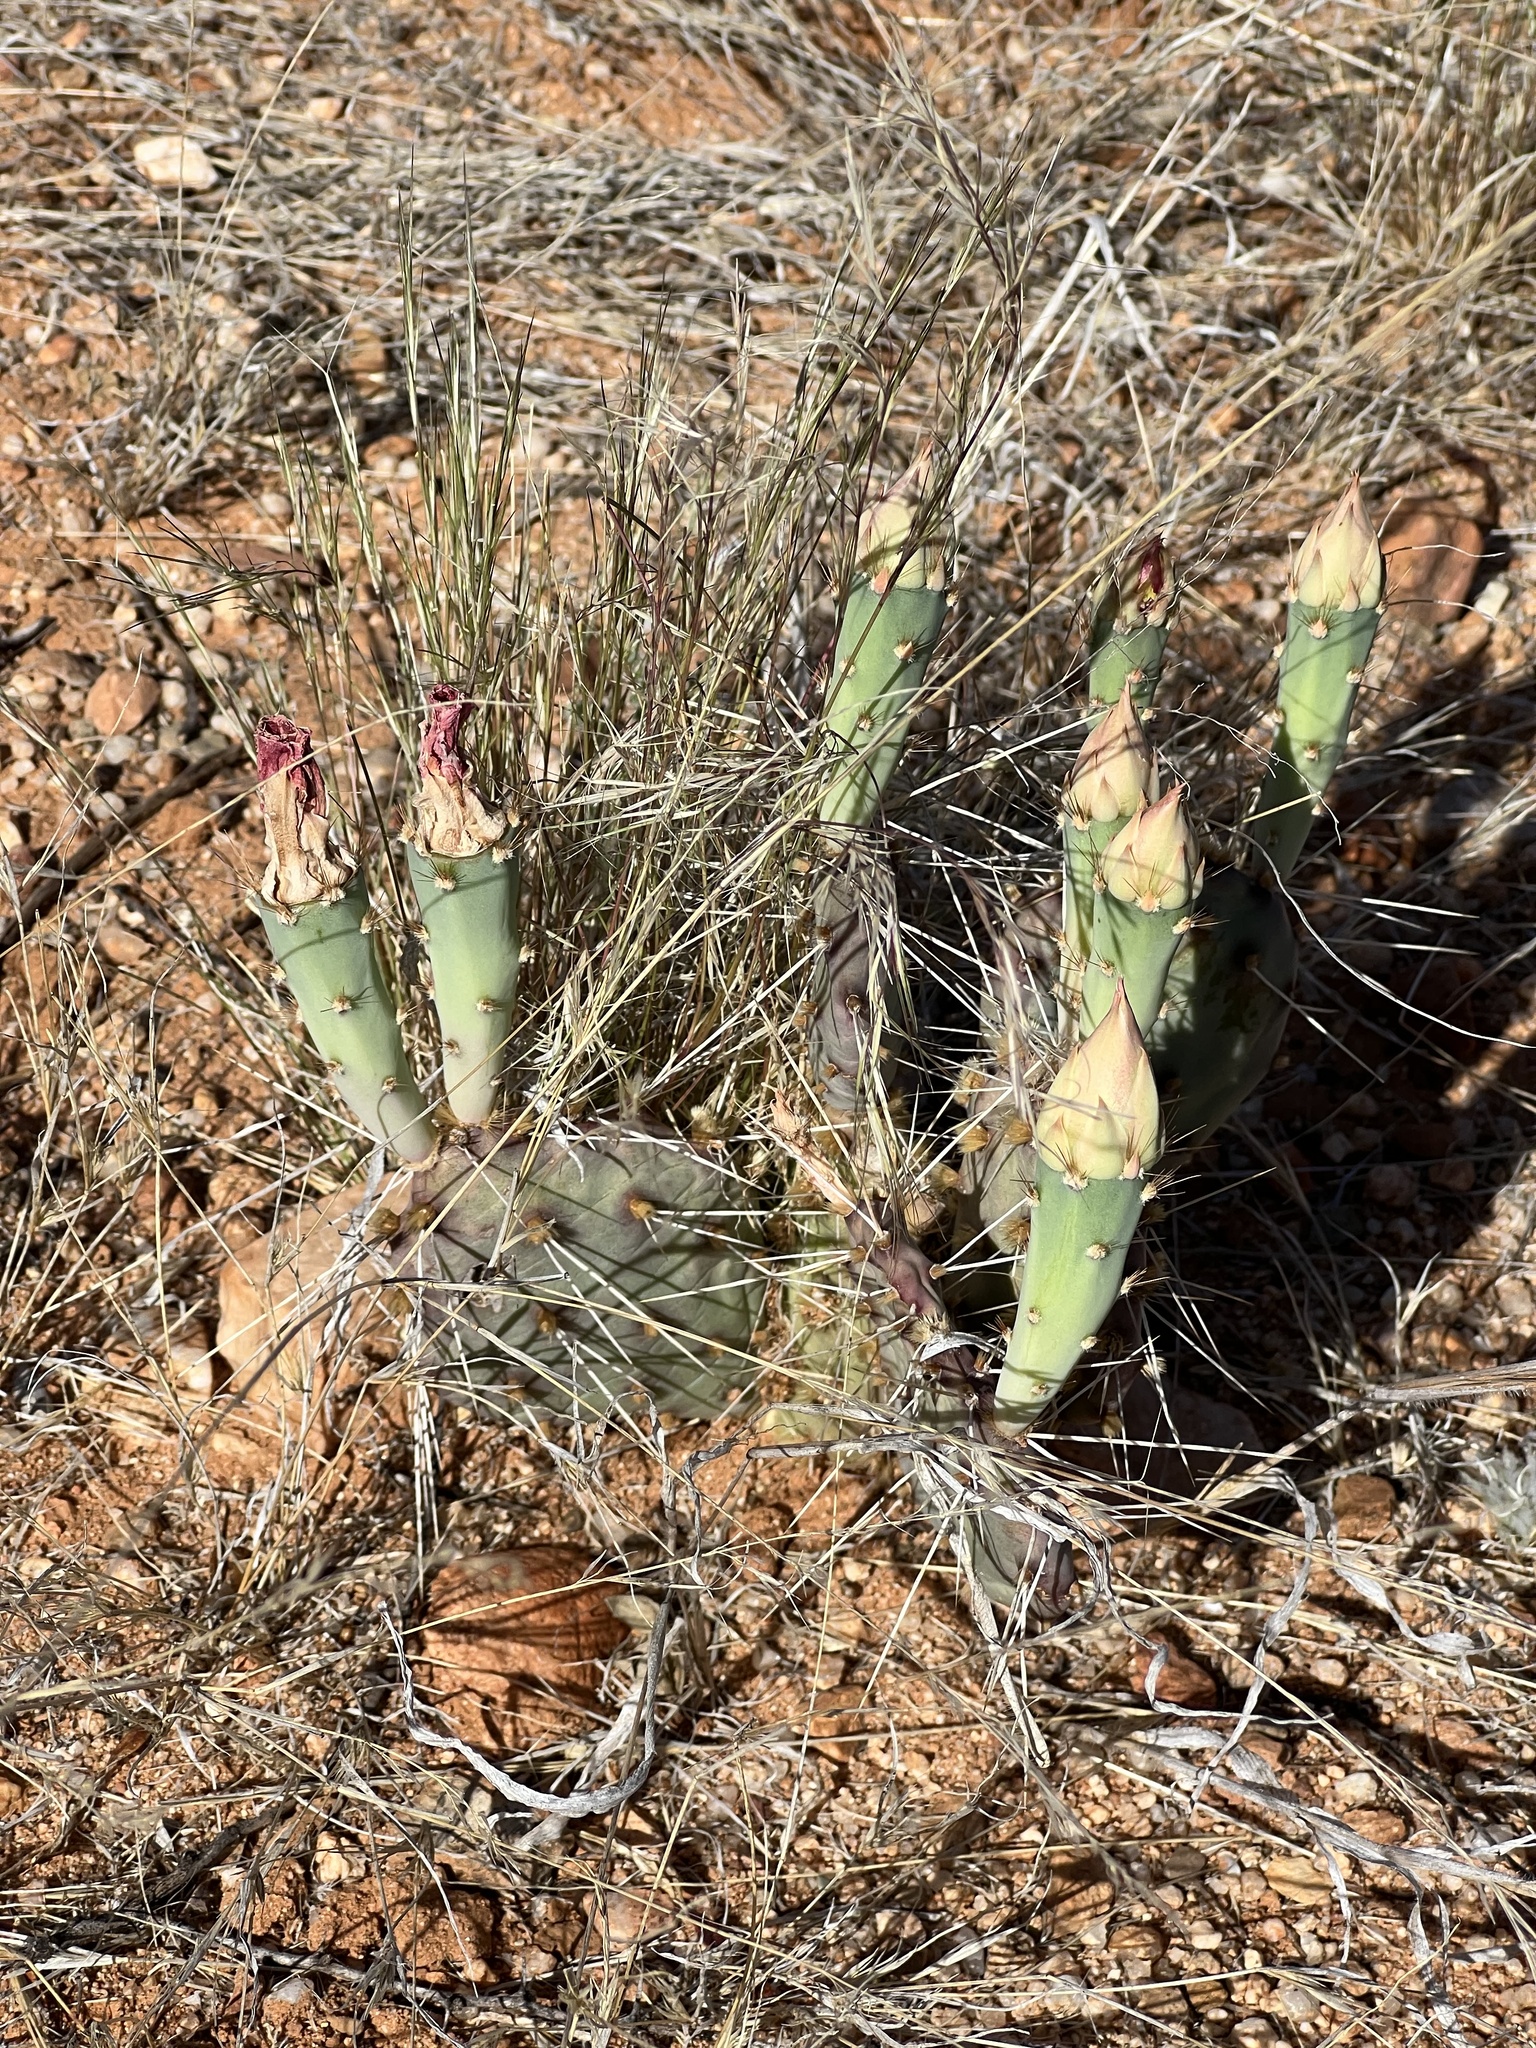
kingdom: Plantae
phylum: Tracheophyta
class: Magnoliopsida
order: Caryophyllales
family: Cactaceae
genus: Opuntia
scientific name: Opuntia phaeacantha
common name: New mexico prickly-pear
